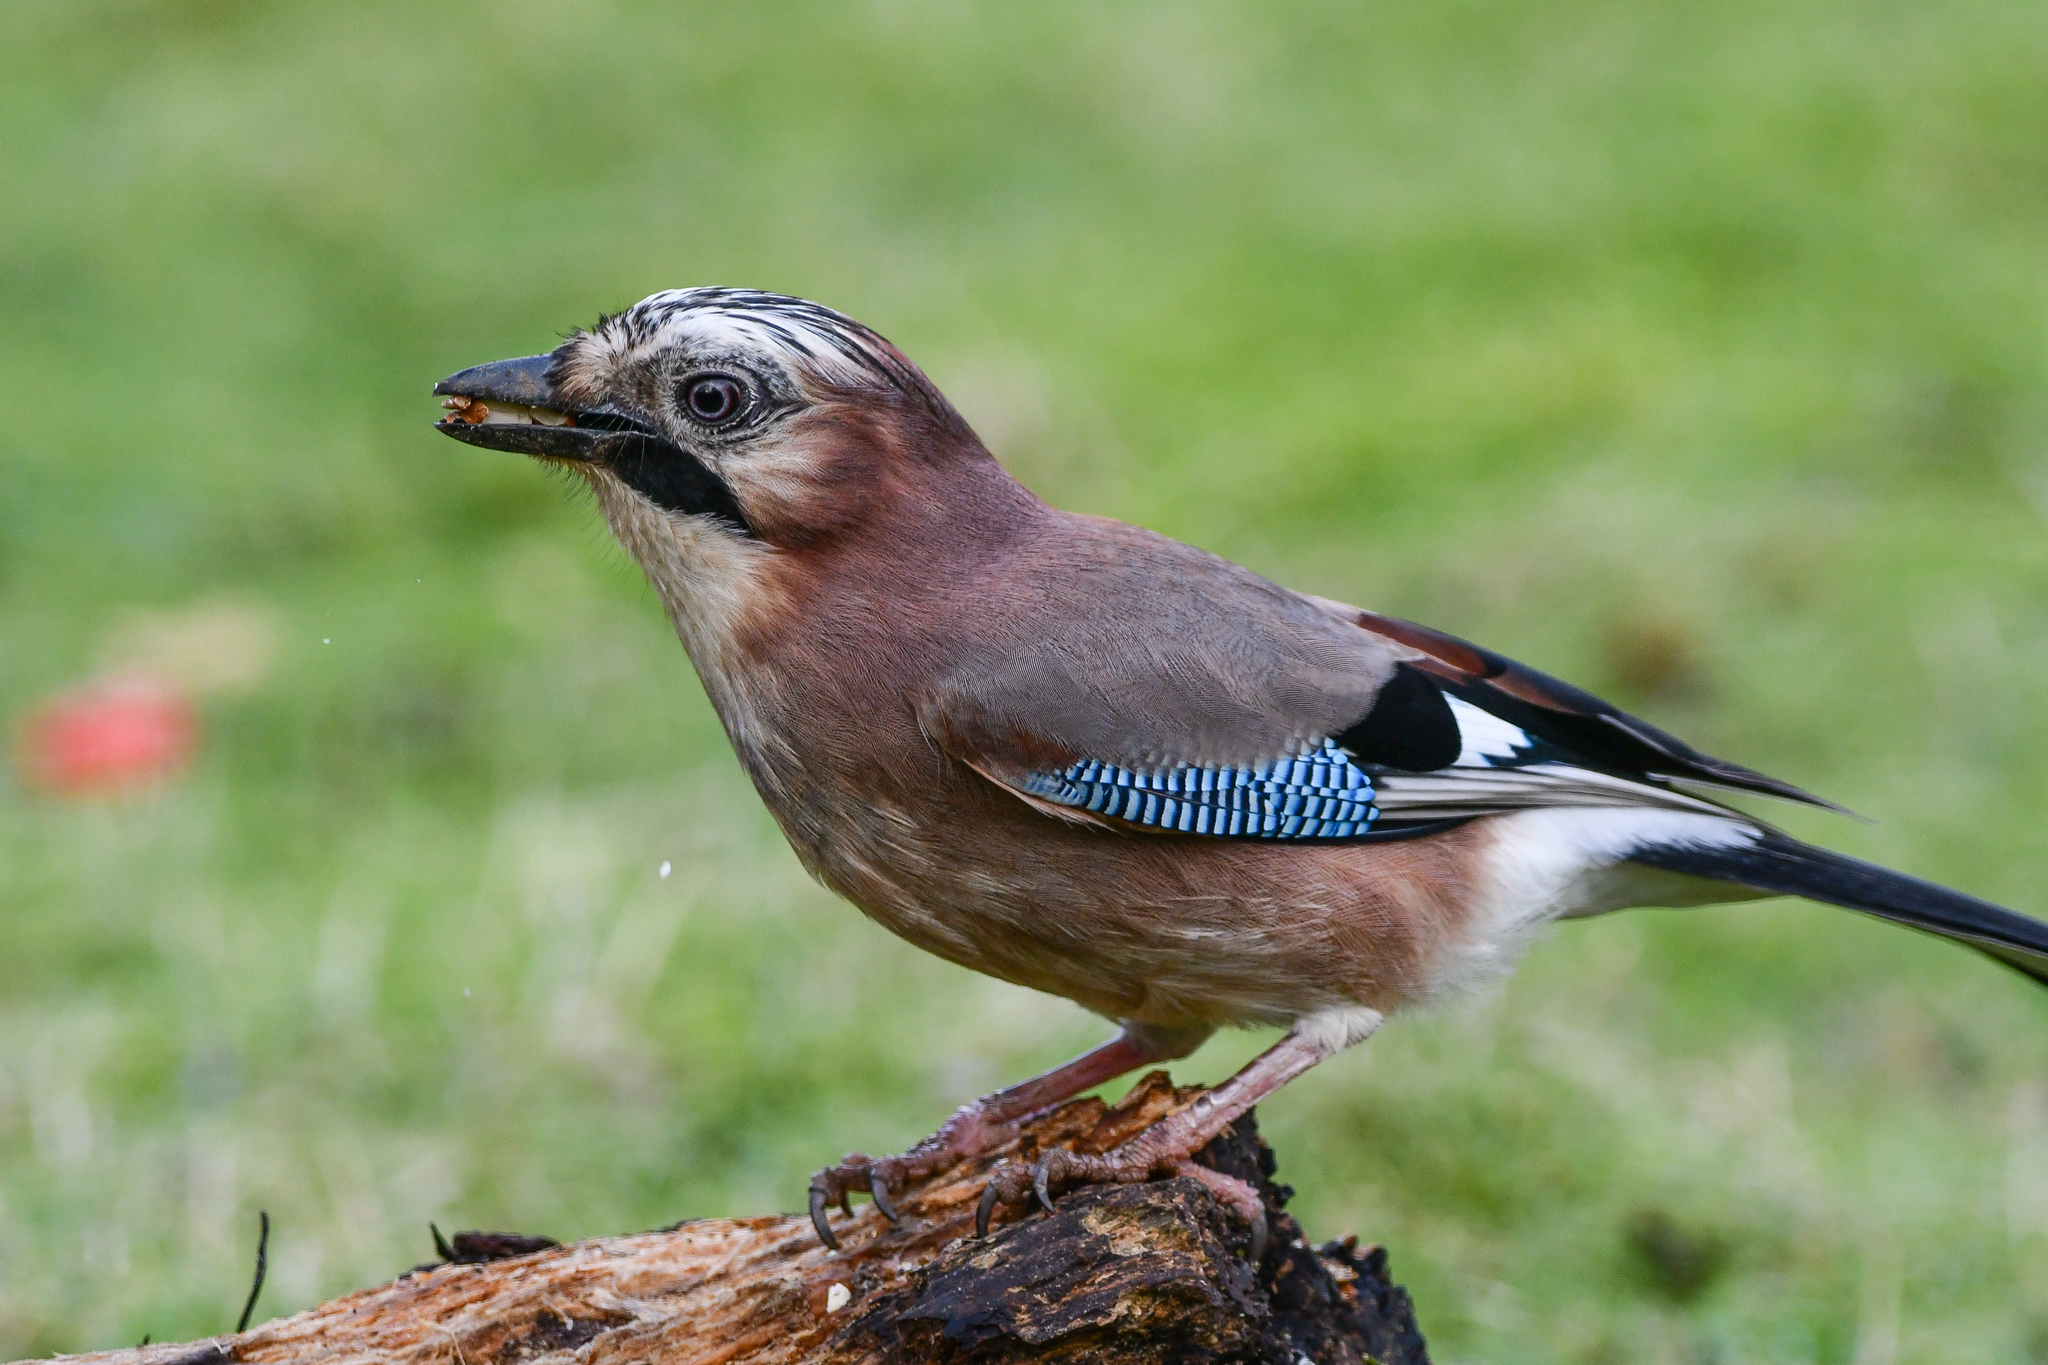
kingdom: Animalia
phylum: Chordata
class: Aves
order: Passeriformes
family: Corvidae
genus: Garrulus
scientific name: Garrulus glandarius
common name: Eurasian jay
